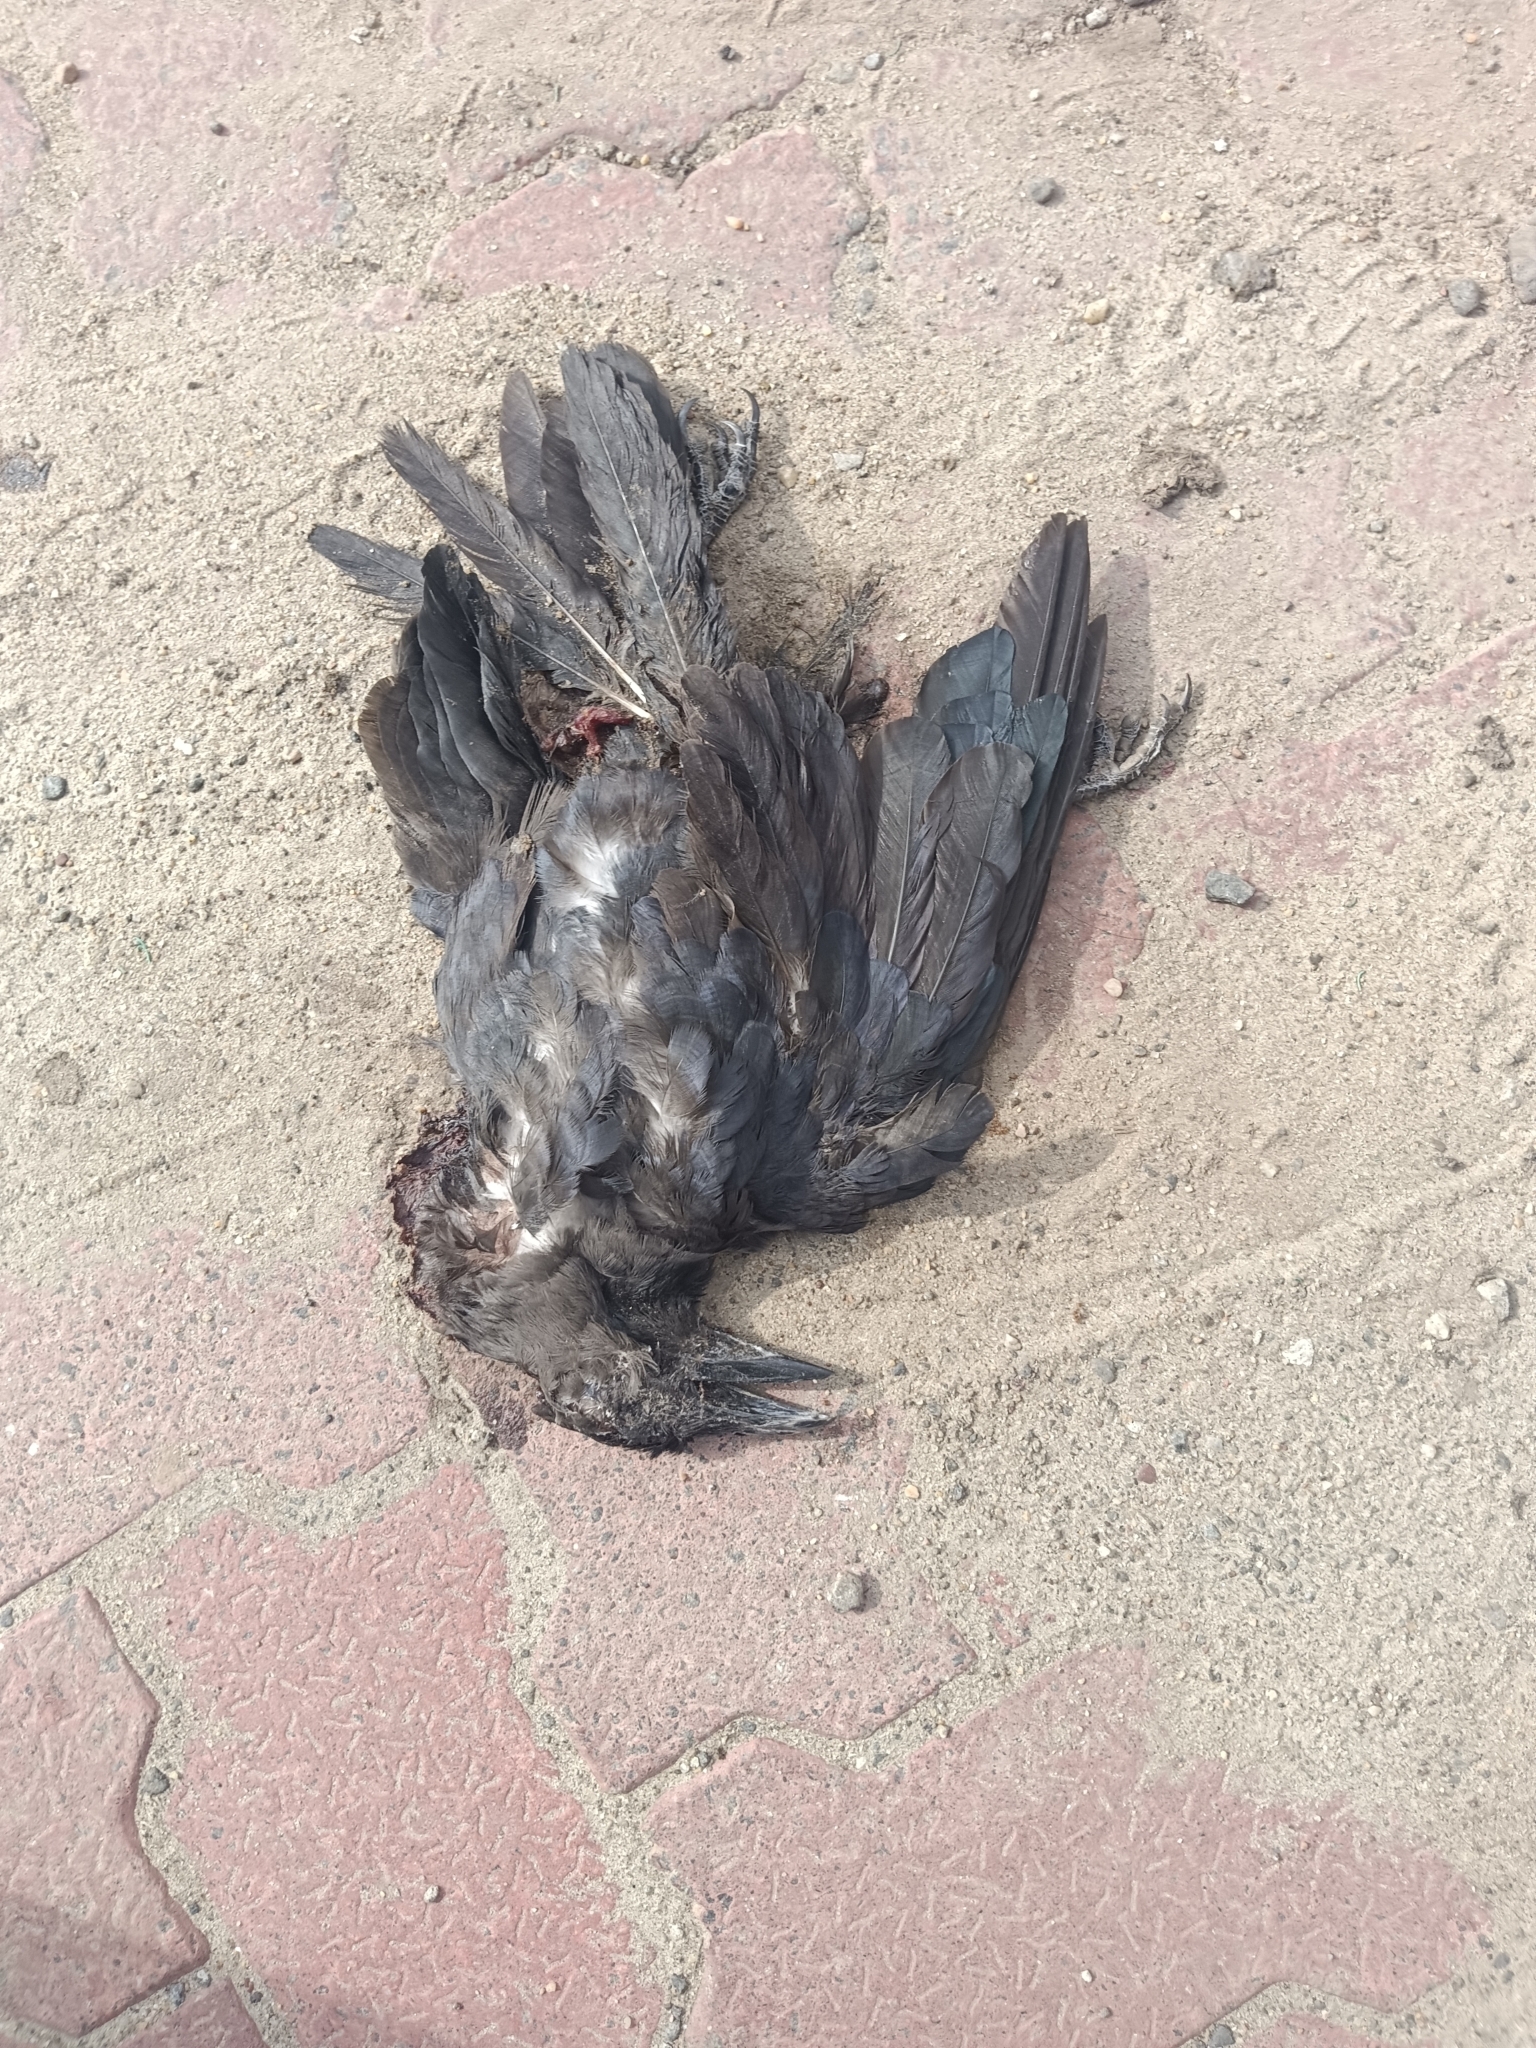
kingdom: Animalia
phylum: Chordata
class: Aves
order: Passeriformes
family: Corvidae
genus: Corvus
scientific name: Corvus splendens
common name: House crow
